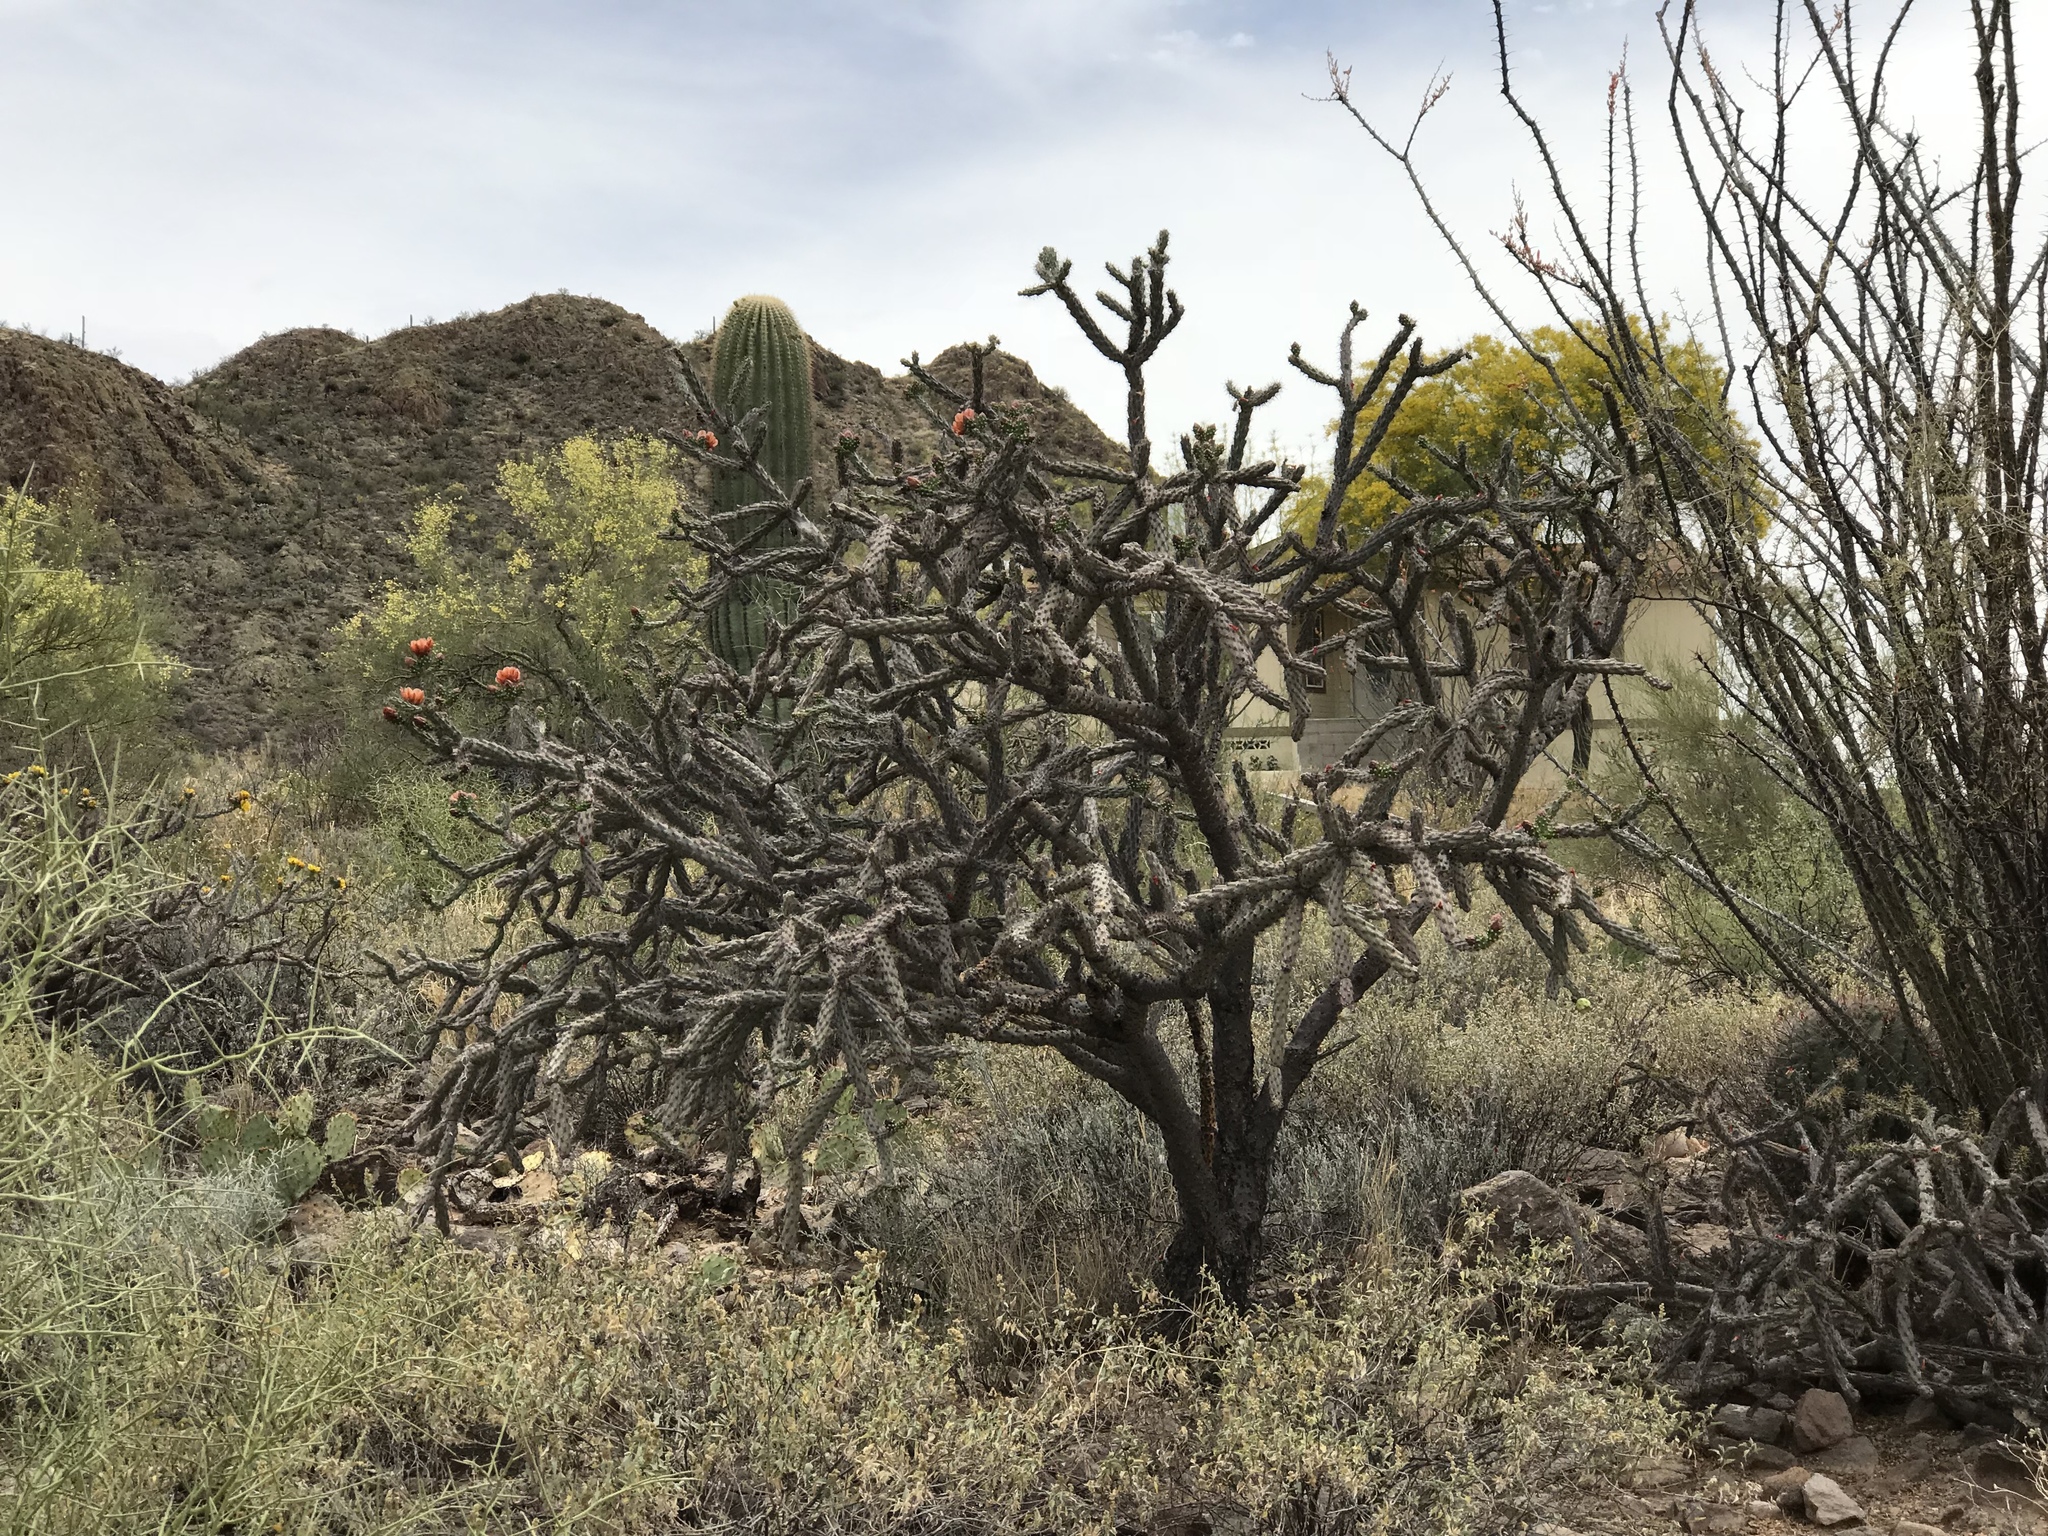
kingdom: Plantae
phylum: Tracheophyta
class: Magnoliopsida
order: Caryophyllales
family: Cactaceae
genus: Cylindropuntia
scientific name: Cylindropuntia thurberi
